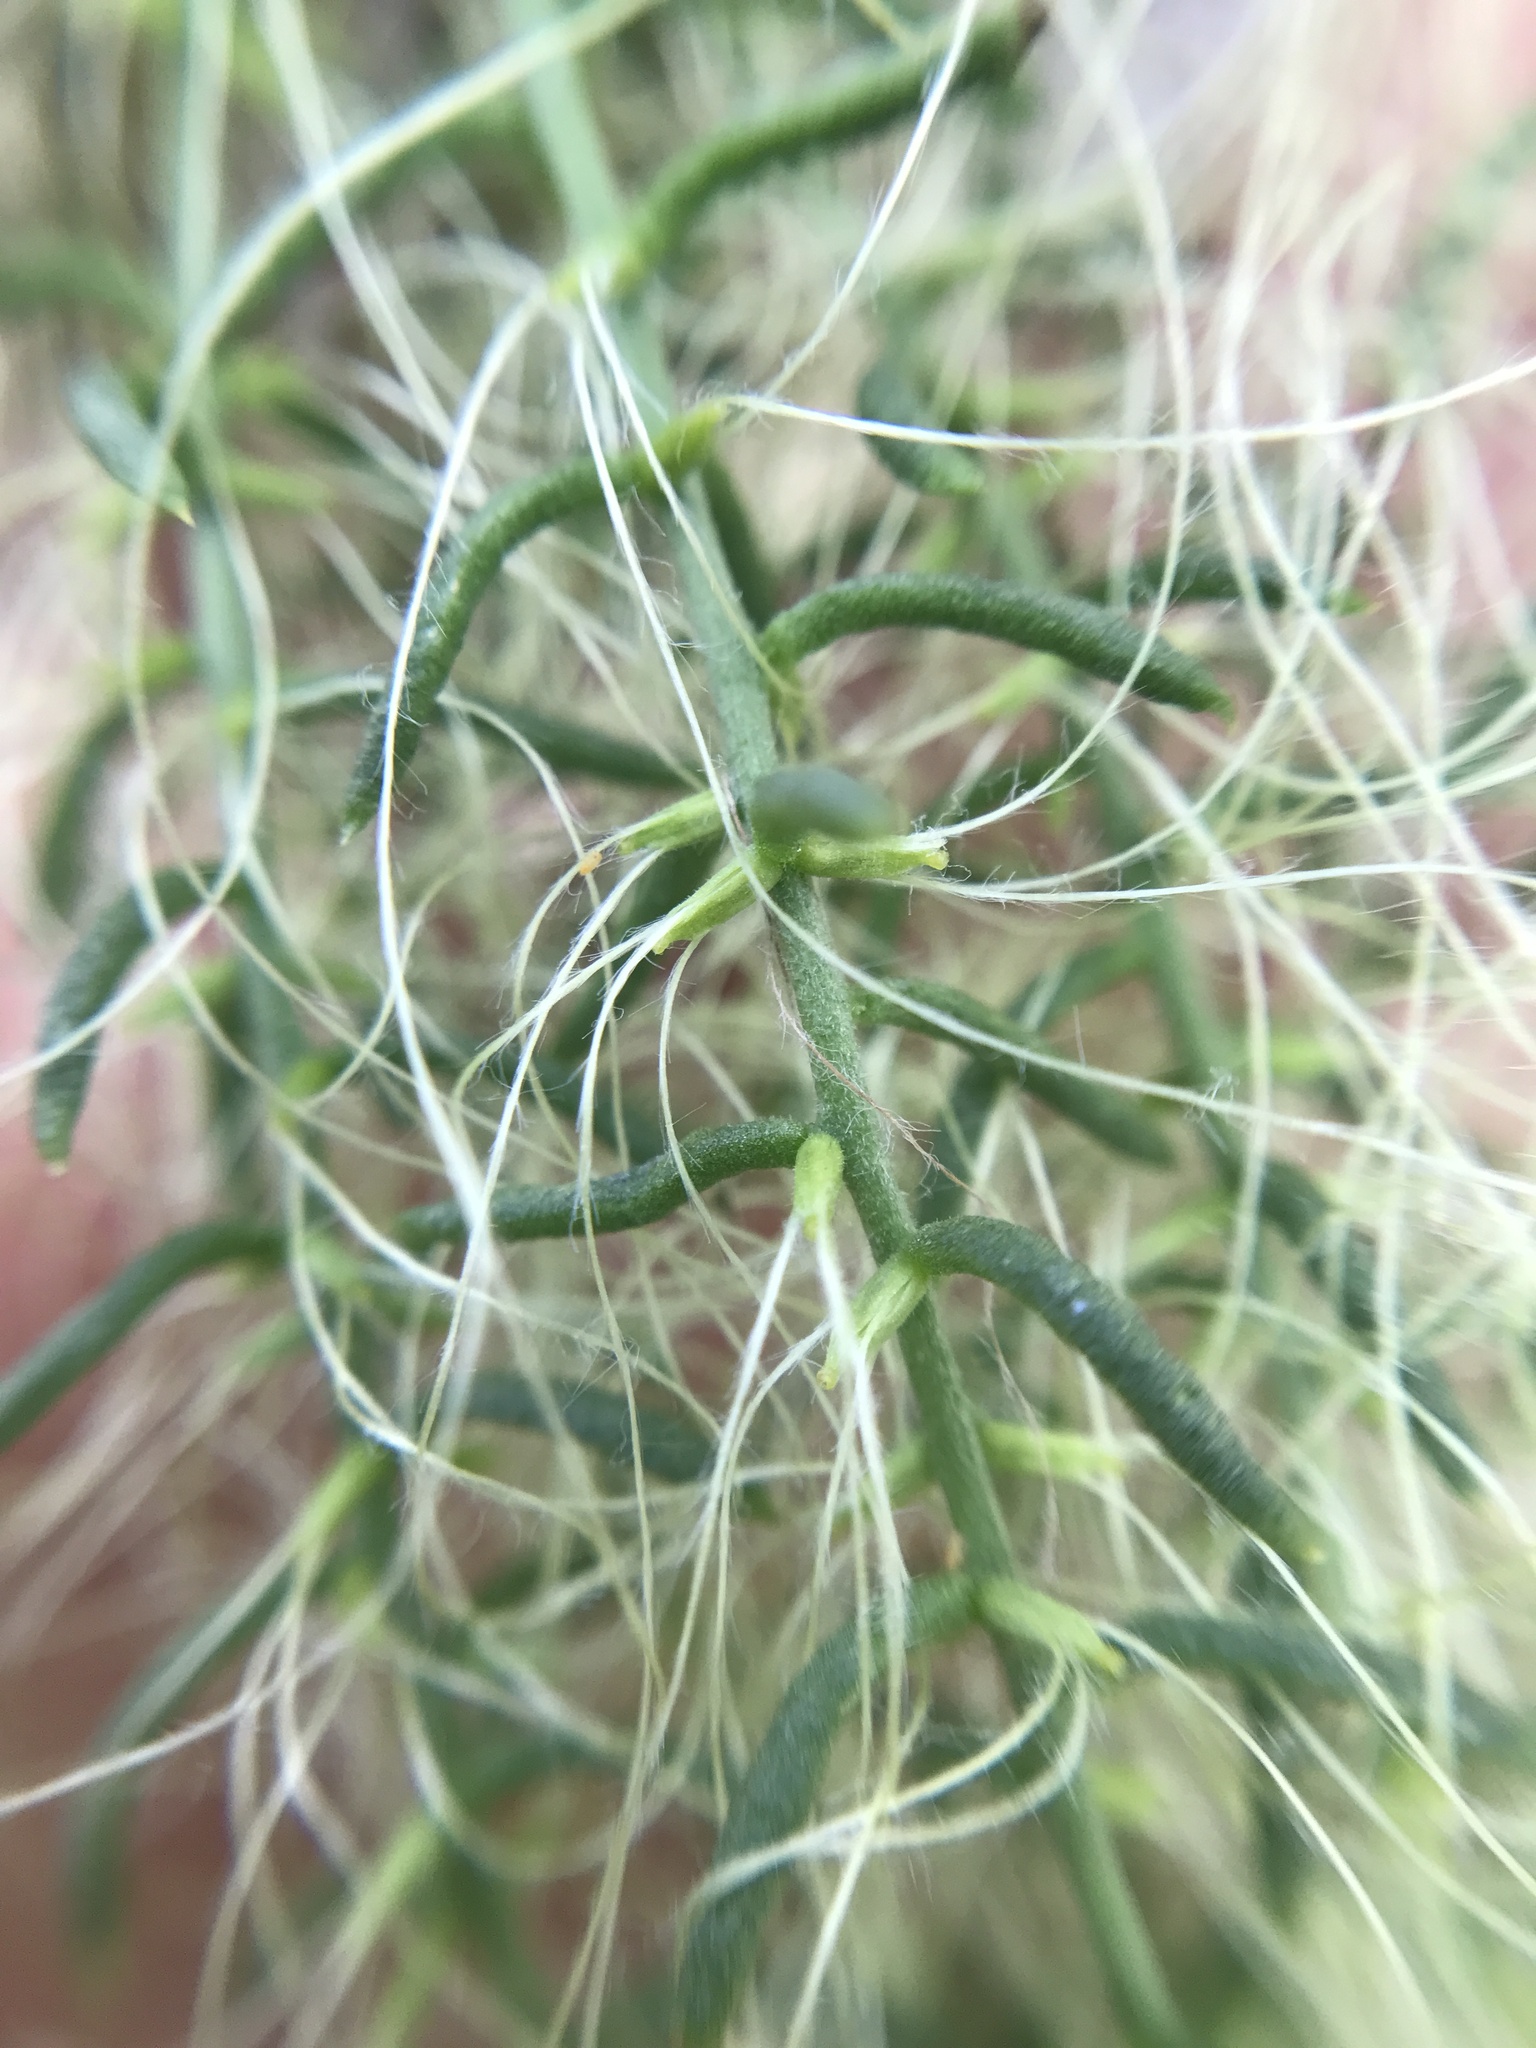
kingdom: Plantae
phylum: Tracheophyta
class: Magnoliopsida
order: Santalales
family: Misodendraceae
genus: Misodendrum
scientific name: Misodendrum linearifolium
